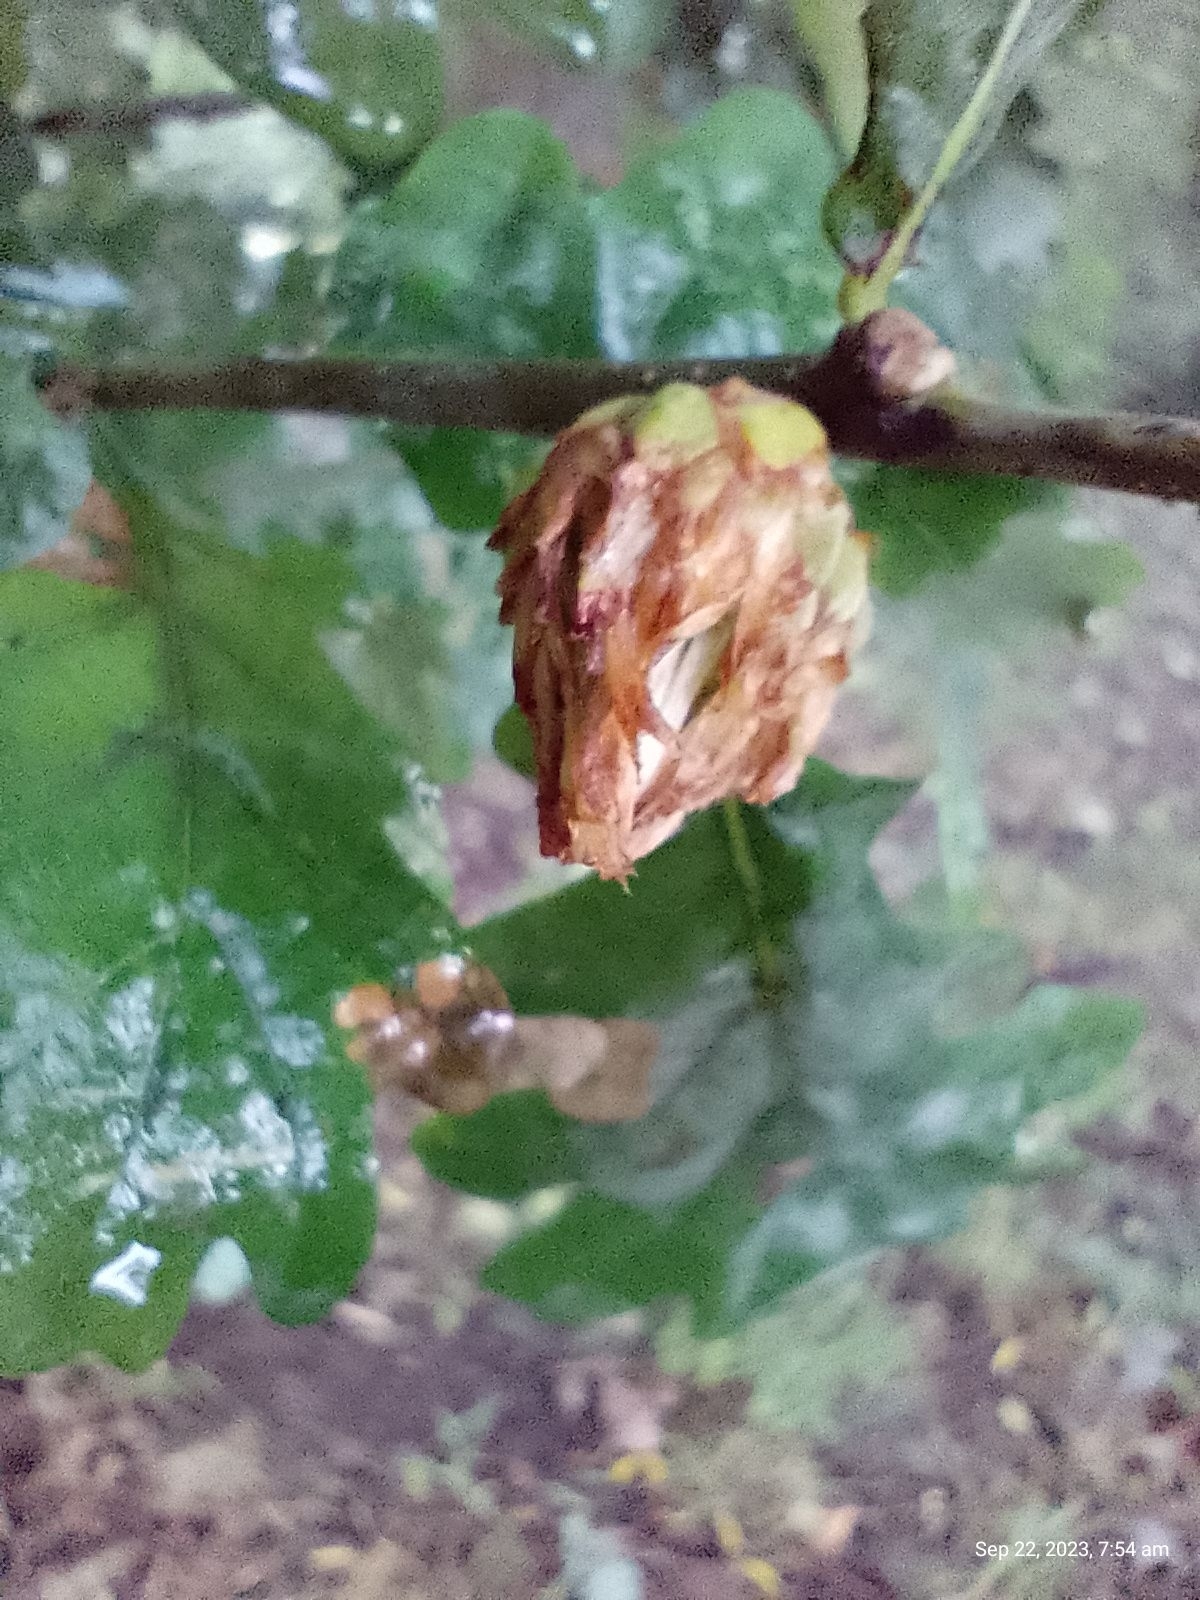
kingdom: Animalia
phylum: Arthropoda
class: Insecta
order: Hymenoptera
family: Cynipidae
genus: Andricus
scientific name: Andricus foecundatrix
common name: Artichoke gall
